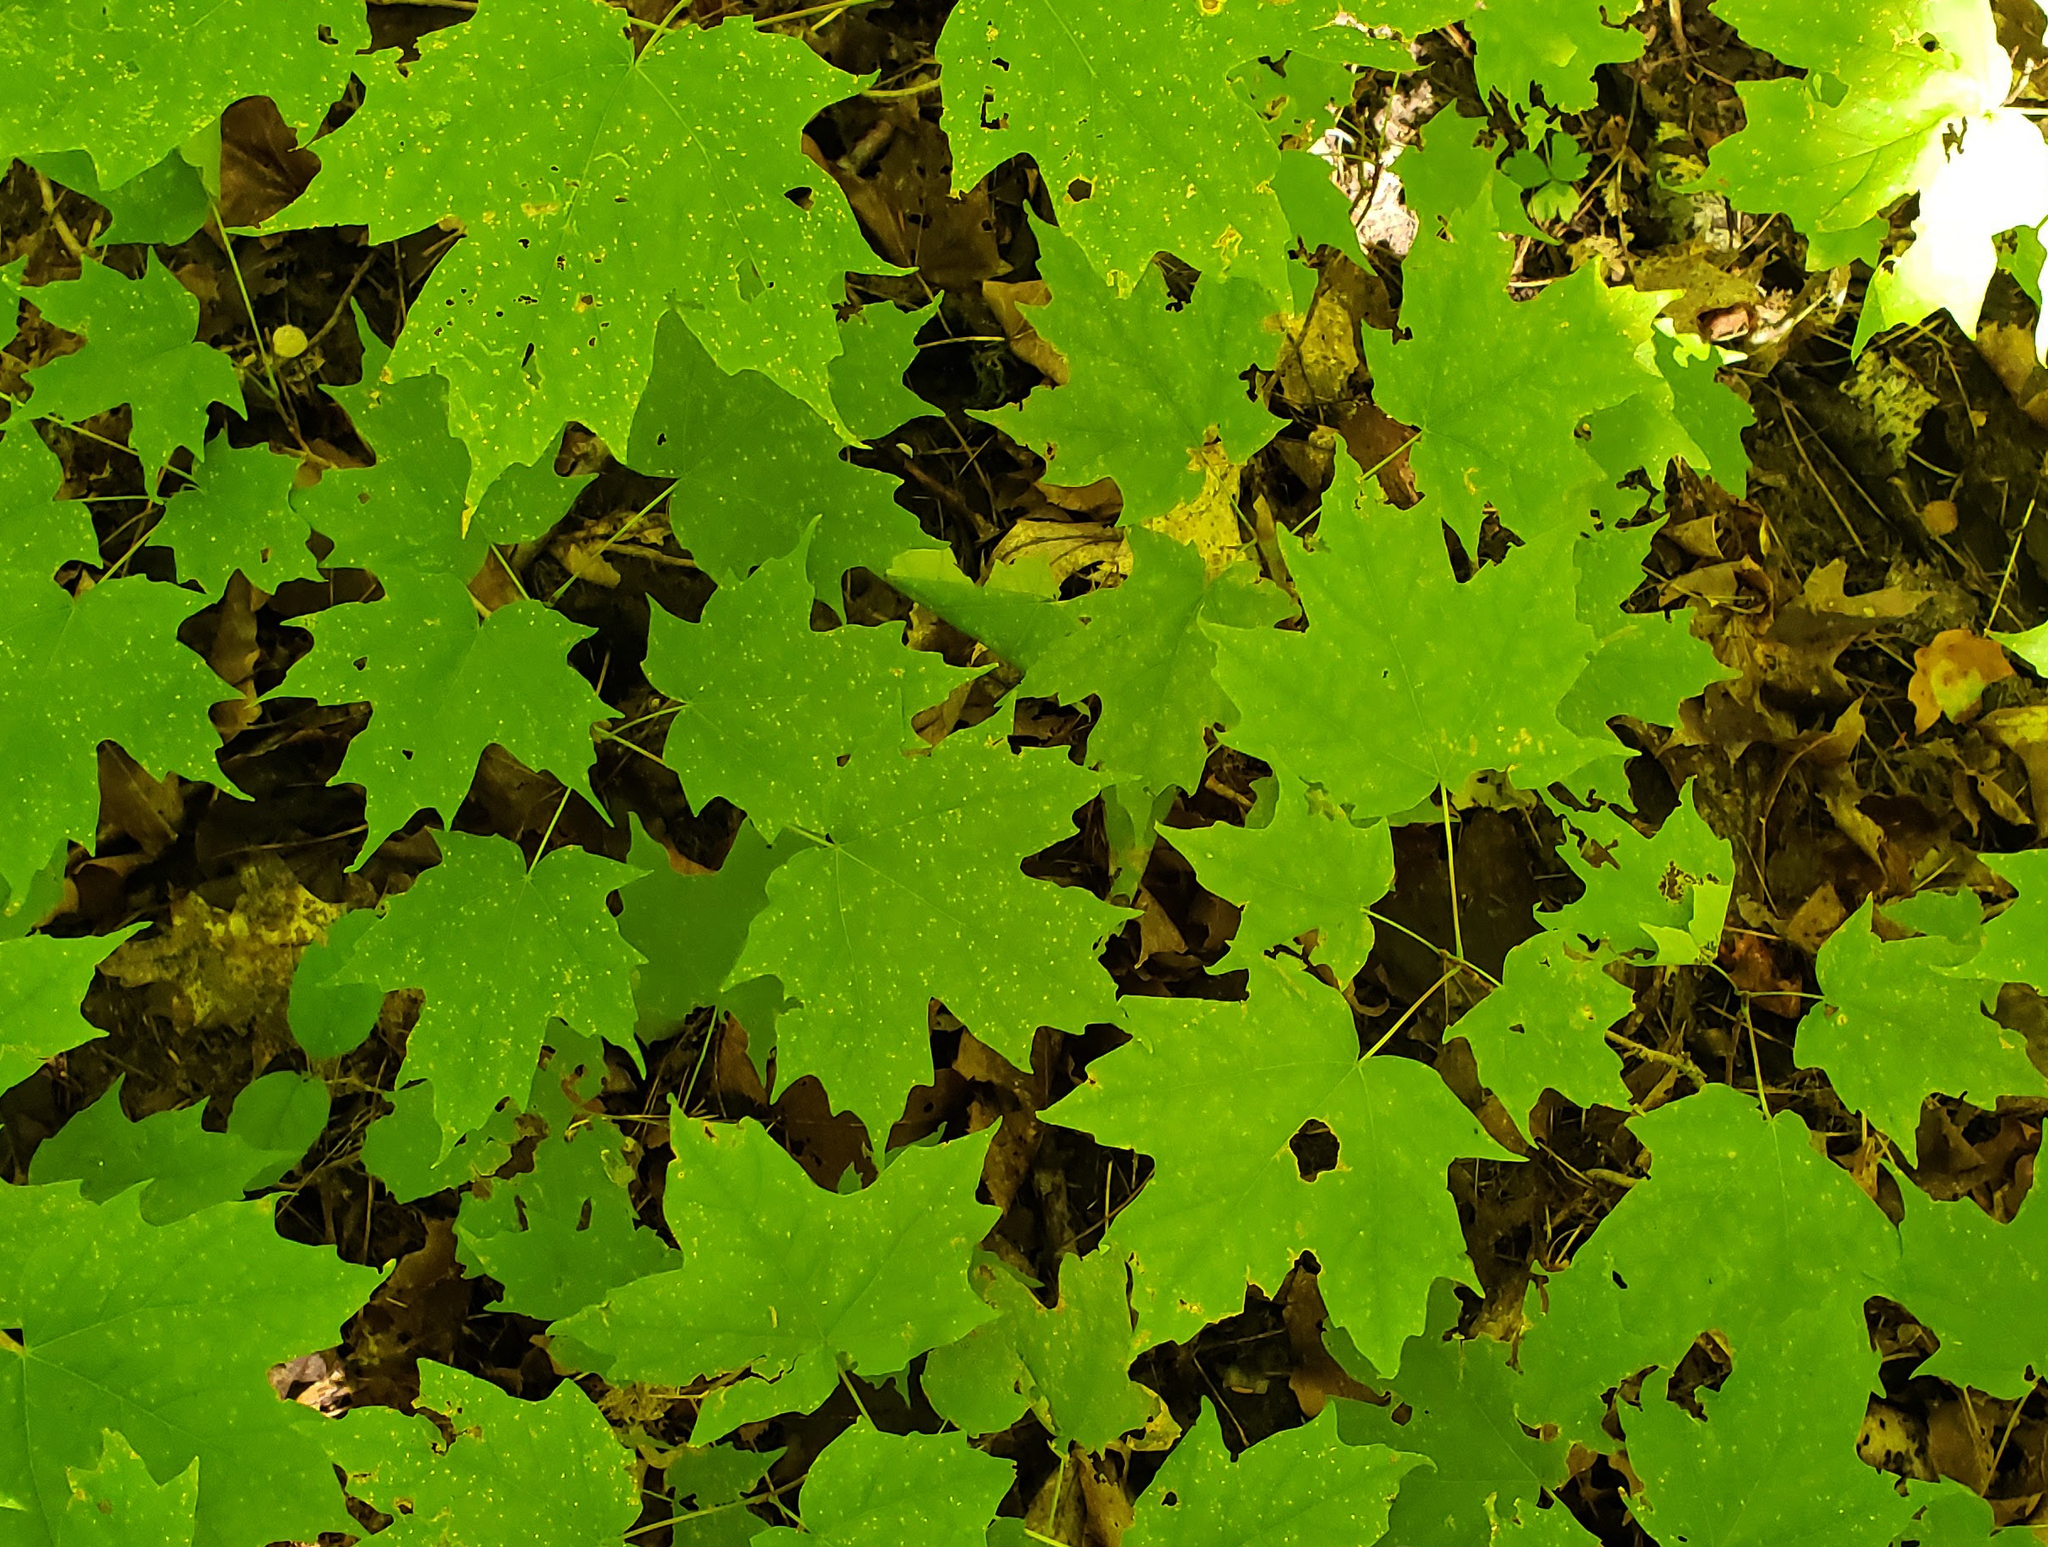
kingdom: Plantae
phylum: Tracheophyta
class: Magnoliopsida
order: Sapindales
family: Sapindaceae
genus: Acer
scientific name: Acer saccharum
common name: Sugar maple
